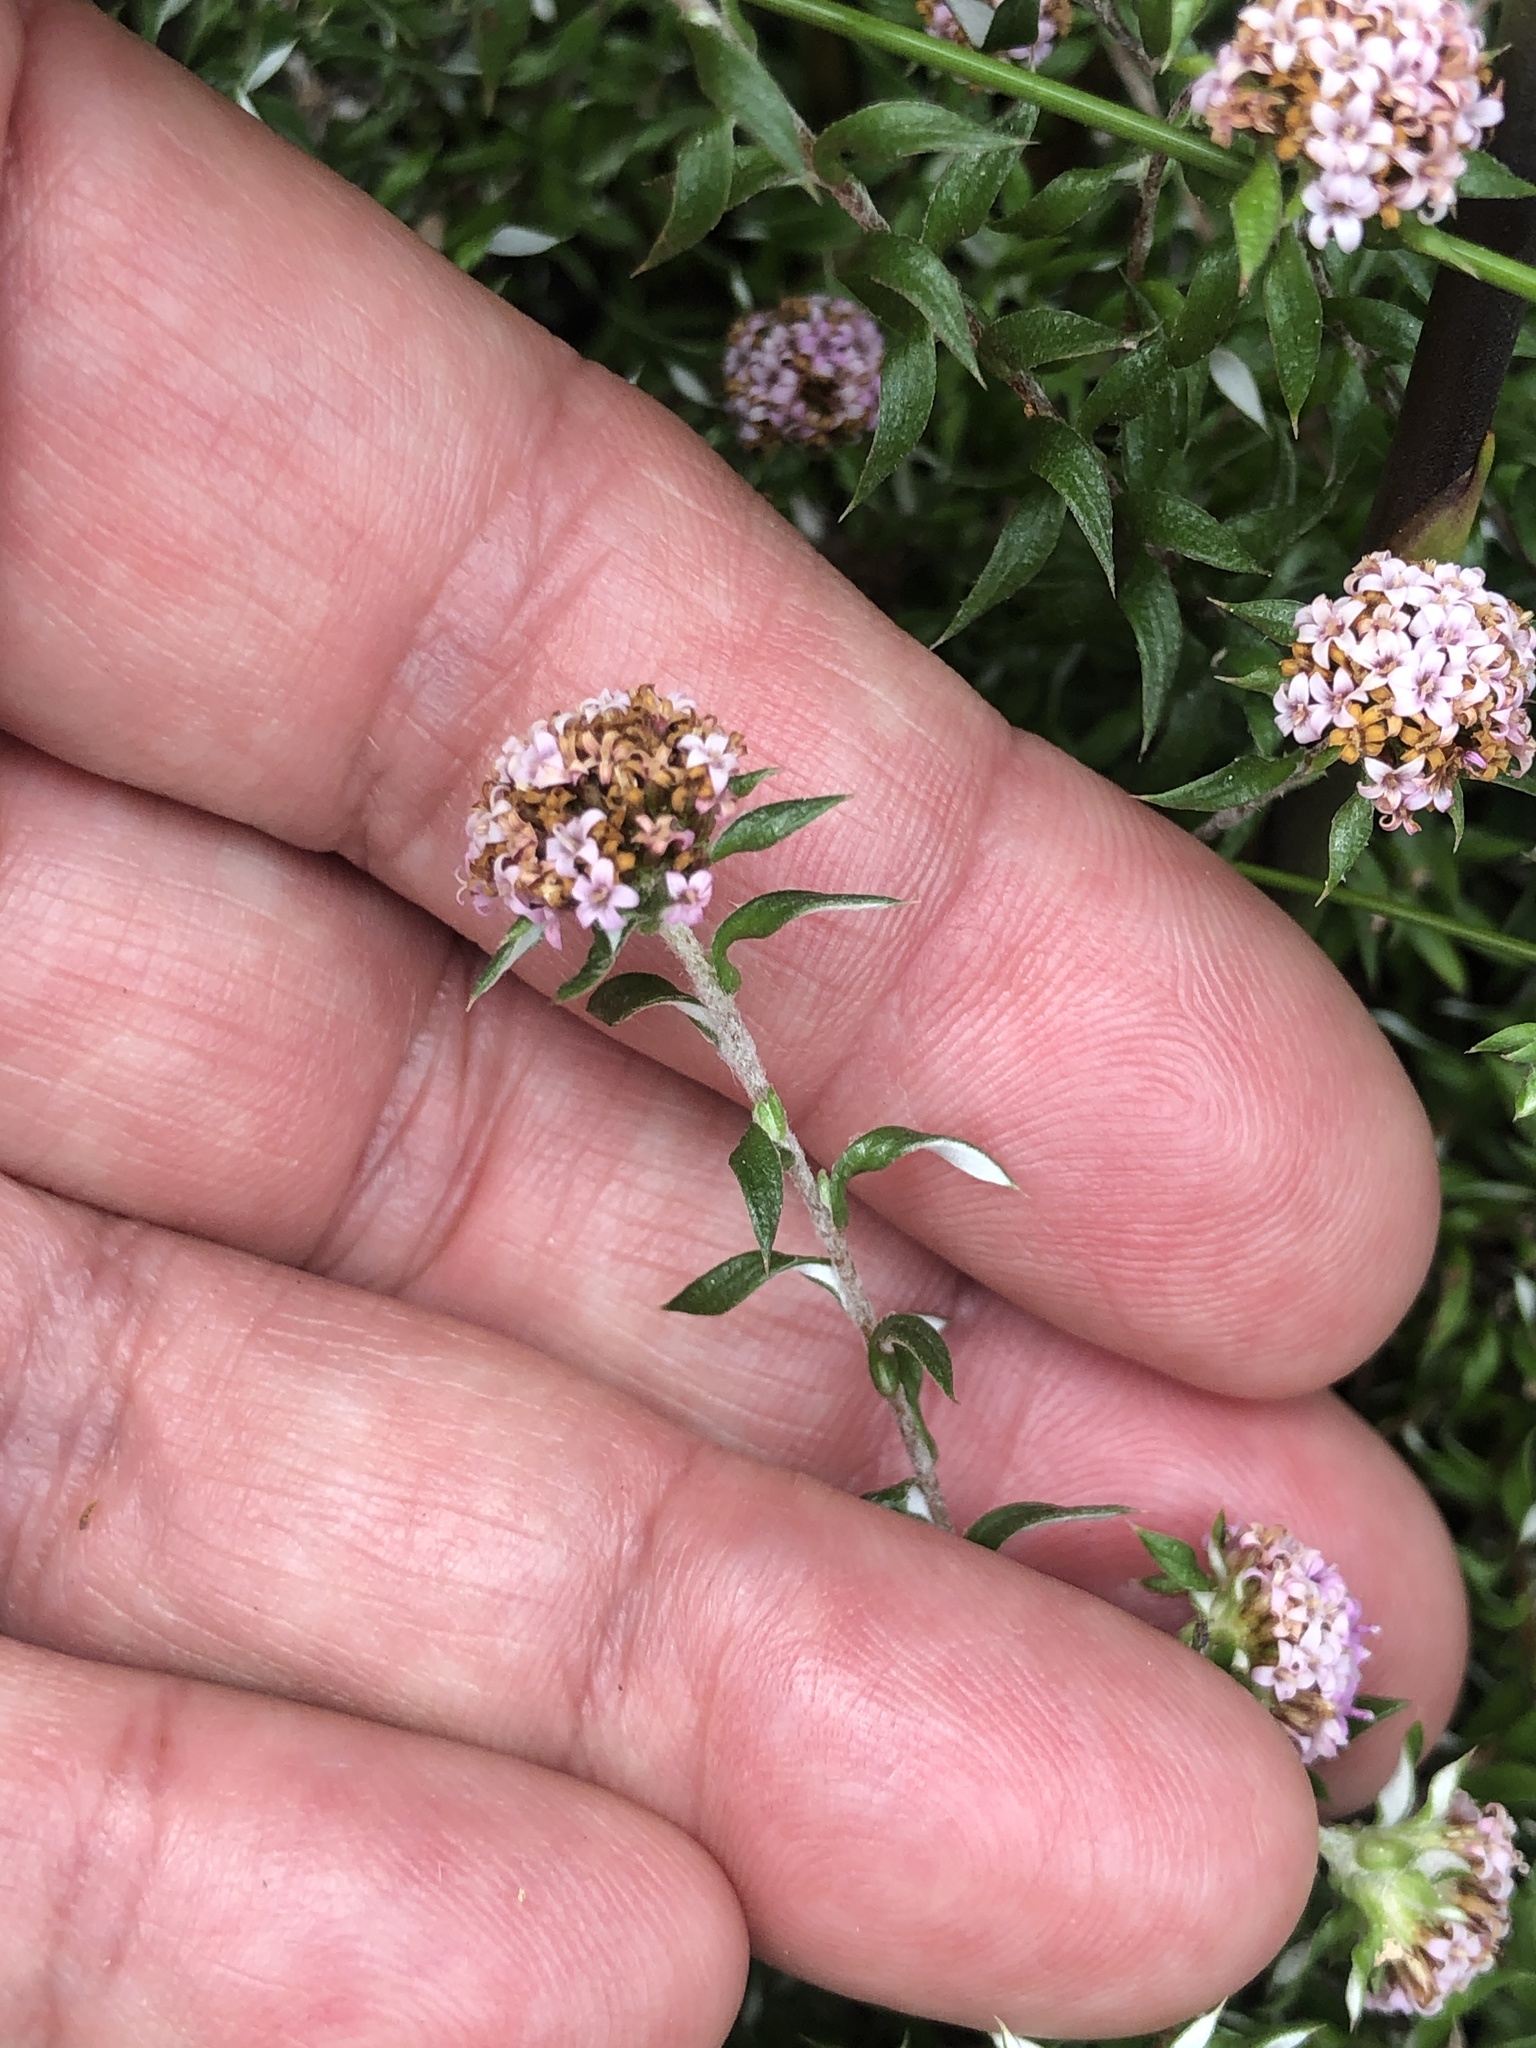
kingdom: Plantae
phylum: Tracheophyta
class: Magnoliopsida
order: Asterales
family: Asteraceae
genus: Stoebe
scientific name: Stoebe prostrata
